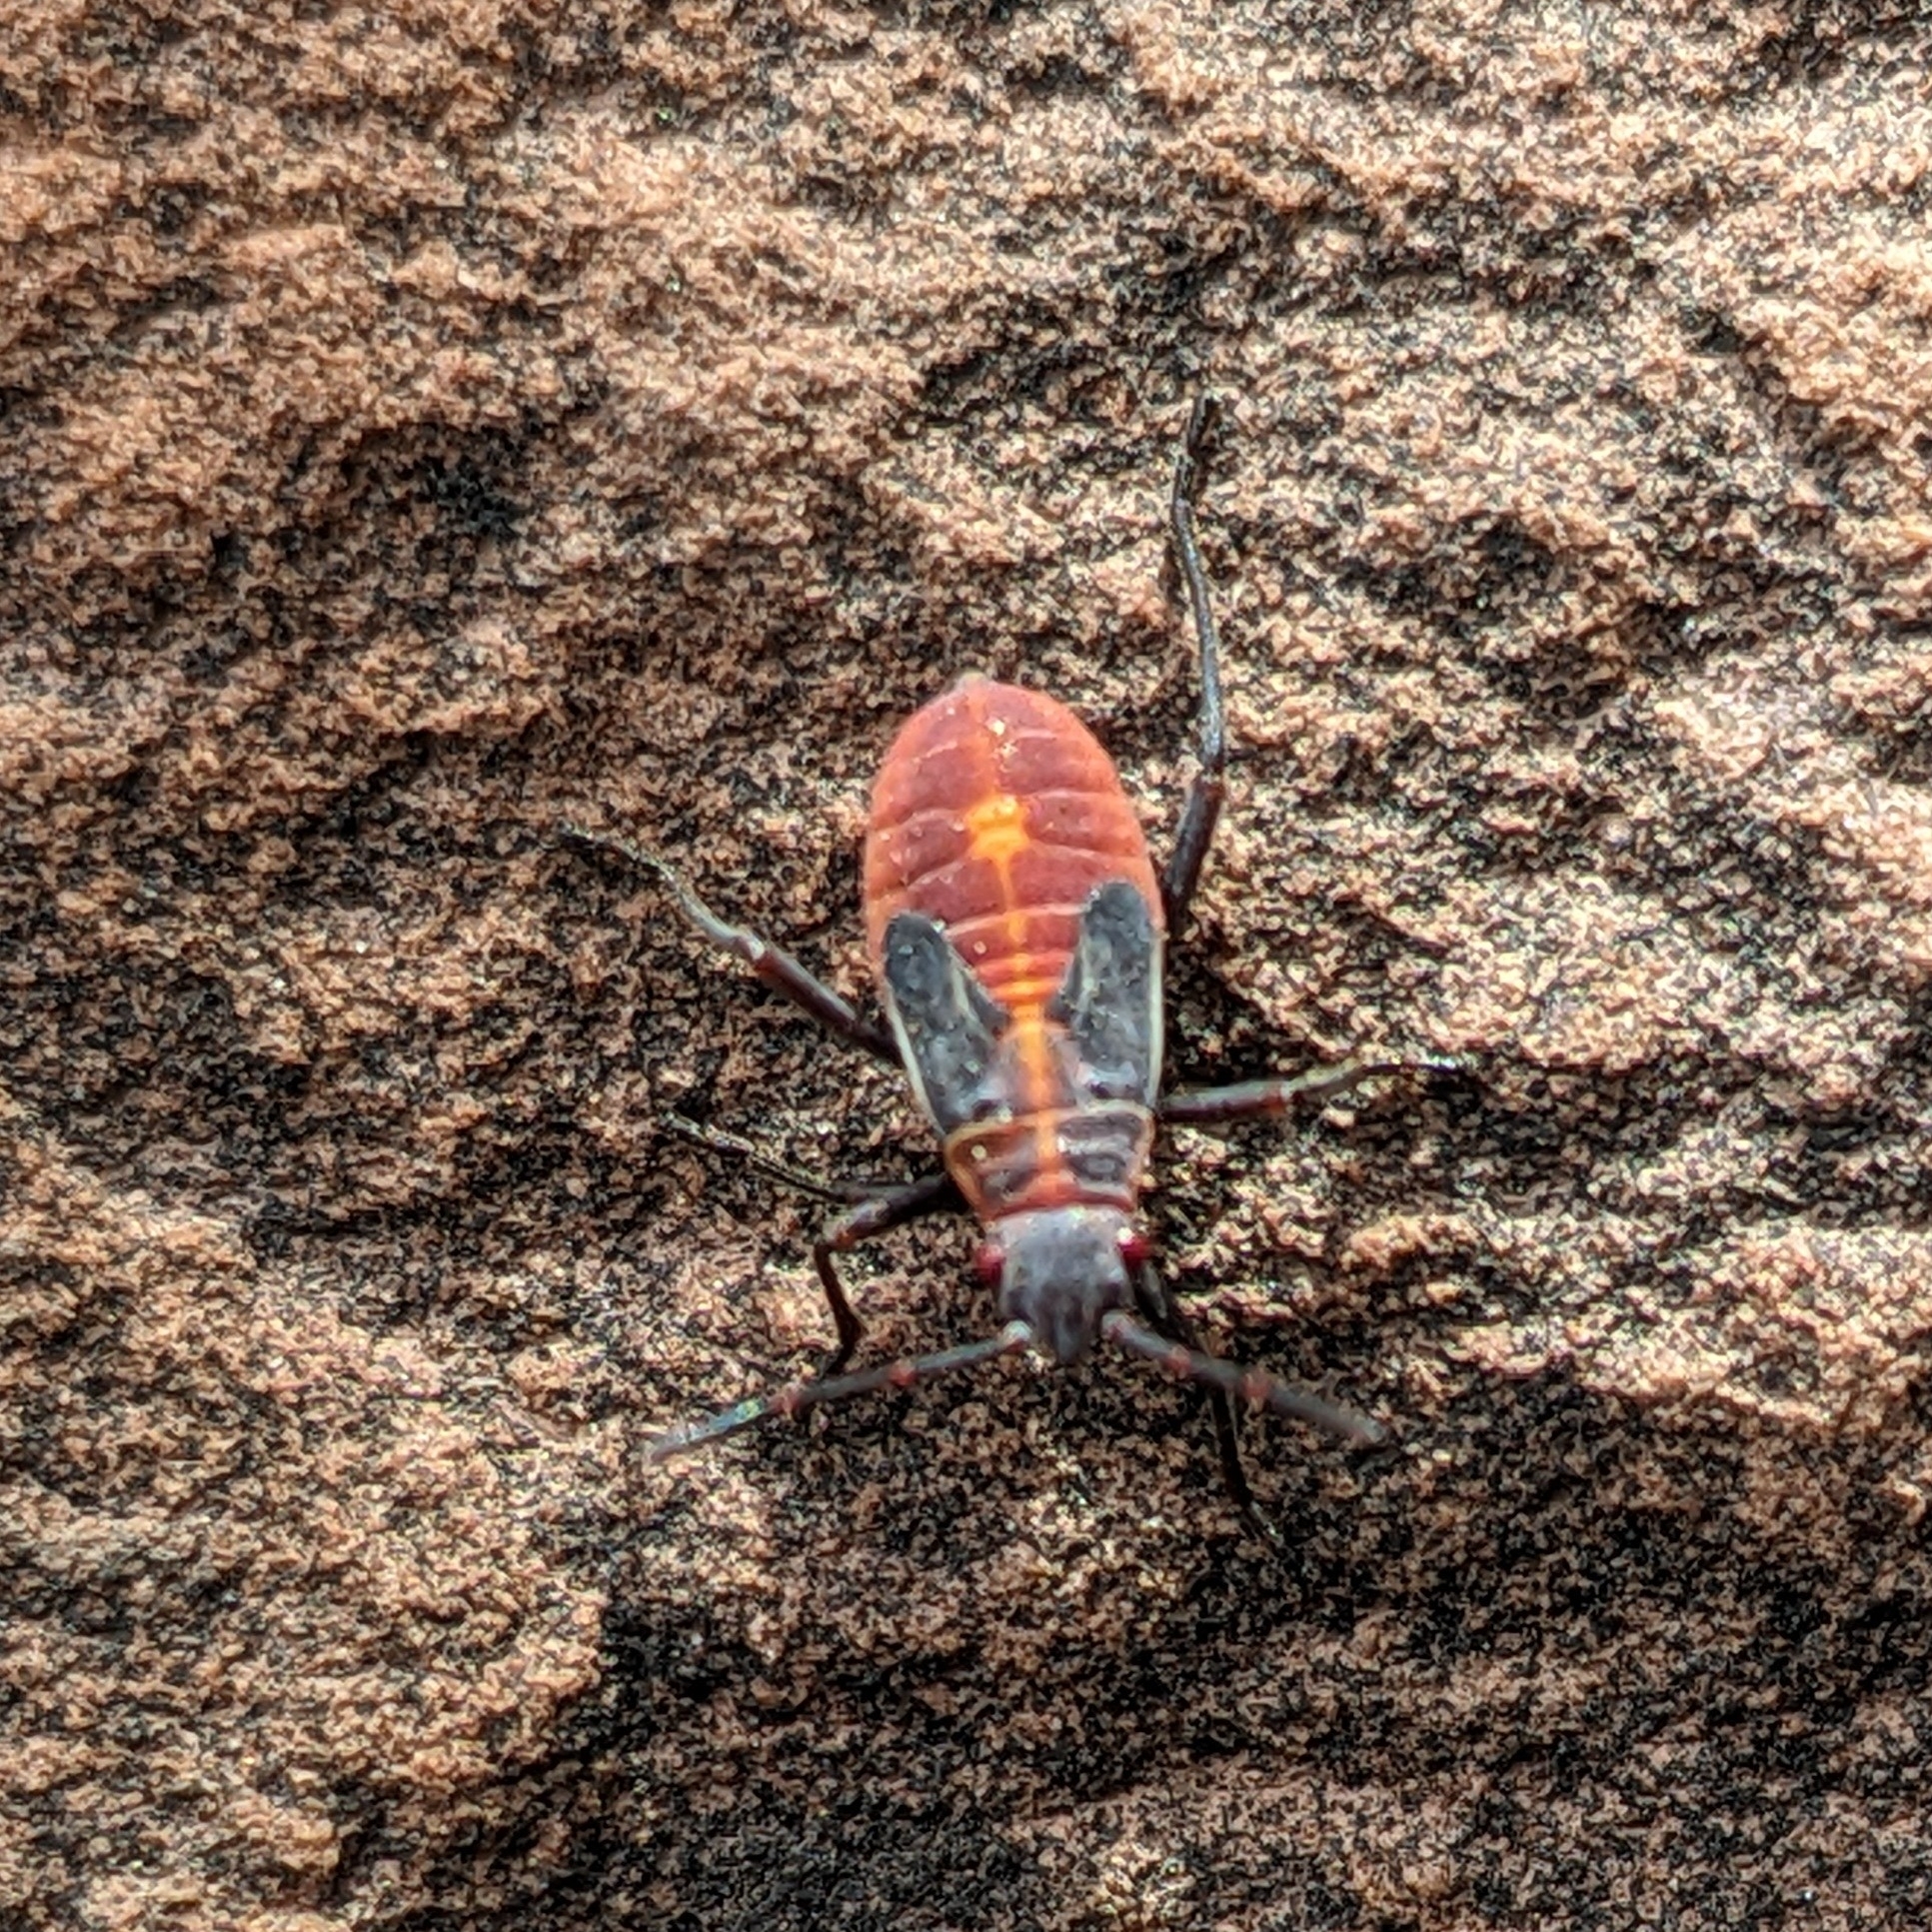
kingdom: Animalia
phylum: Arthropoda
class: Insecta
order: Hemiptera
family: Rhopalidae
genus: Boisea
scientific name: Boisea trivittata
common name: Boxelder bug
